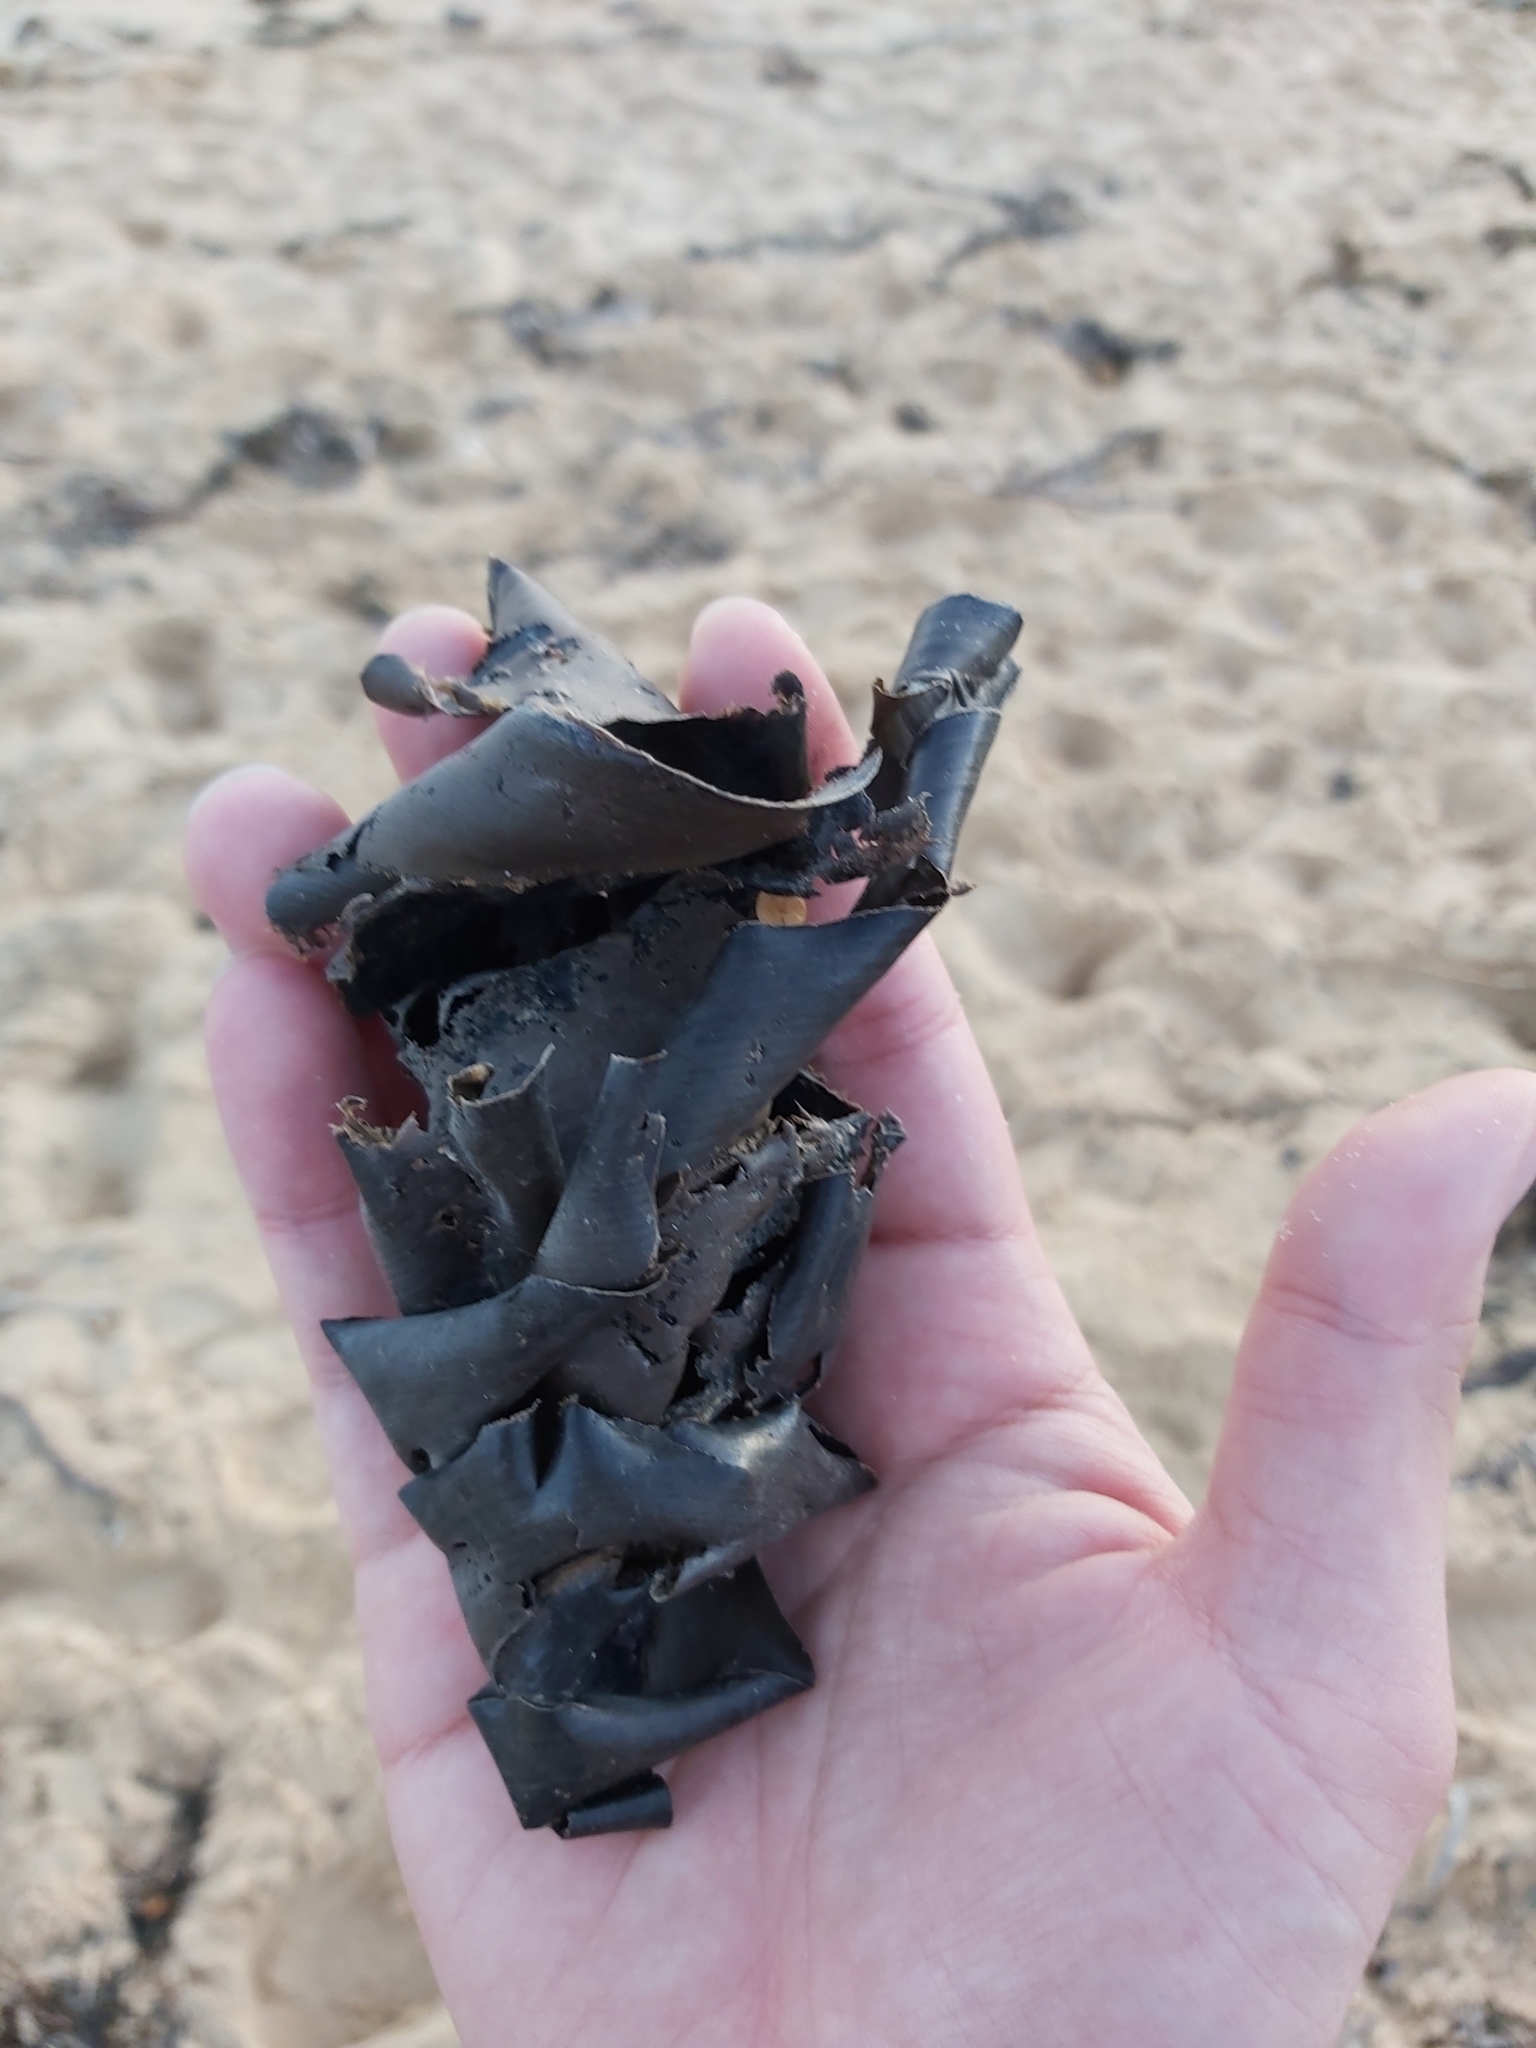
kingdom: Animalia
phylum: Chordata
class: Elasmobranchii
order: Heterodontiformes
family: Heterodontidae
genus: Heterodontus
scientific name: Heterodontus portusjacksoni
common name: Port jackson shark
